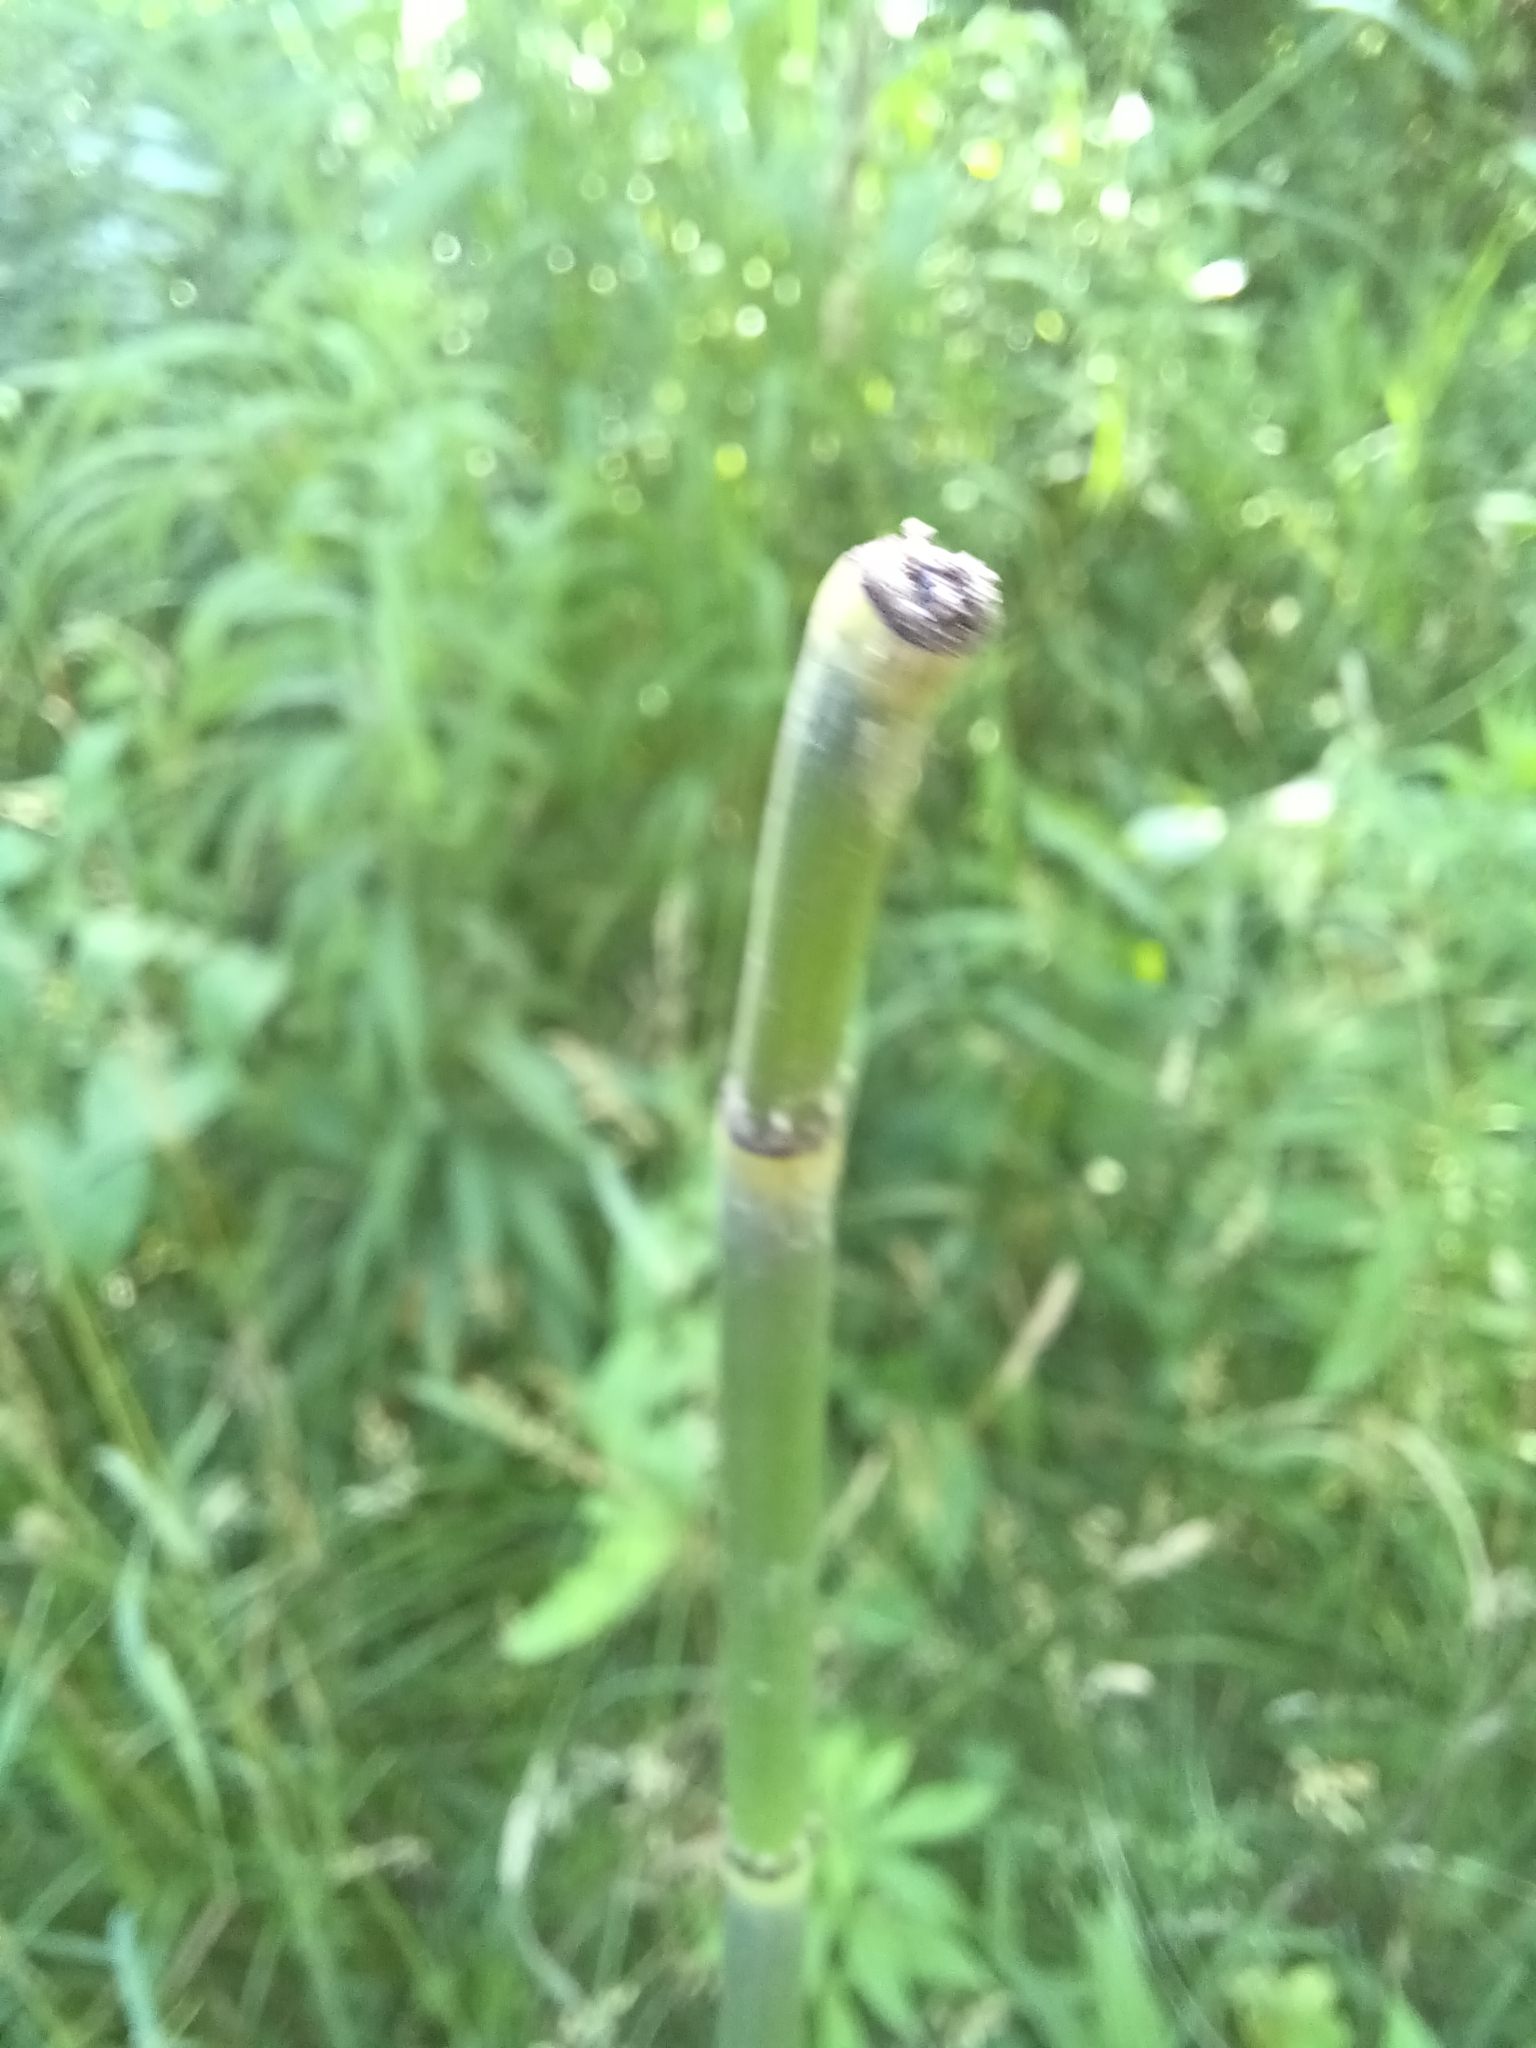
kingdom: Plantae
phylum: Tracheophyta
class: Polypodiopsida
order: Equisetales
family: Equisetaceae
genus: Equisetum
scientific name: Equisetum laevigatum
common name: Smooth scouring-rush
